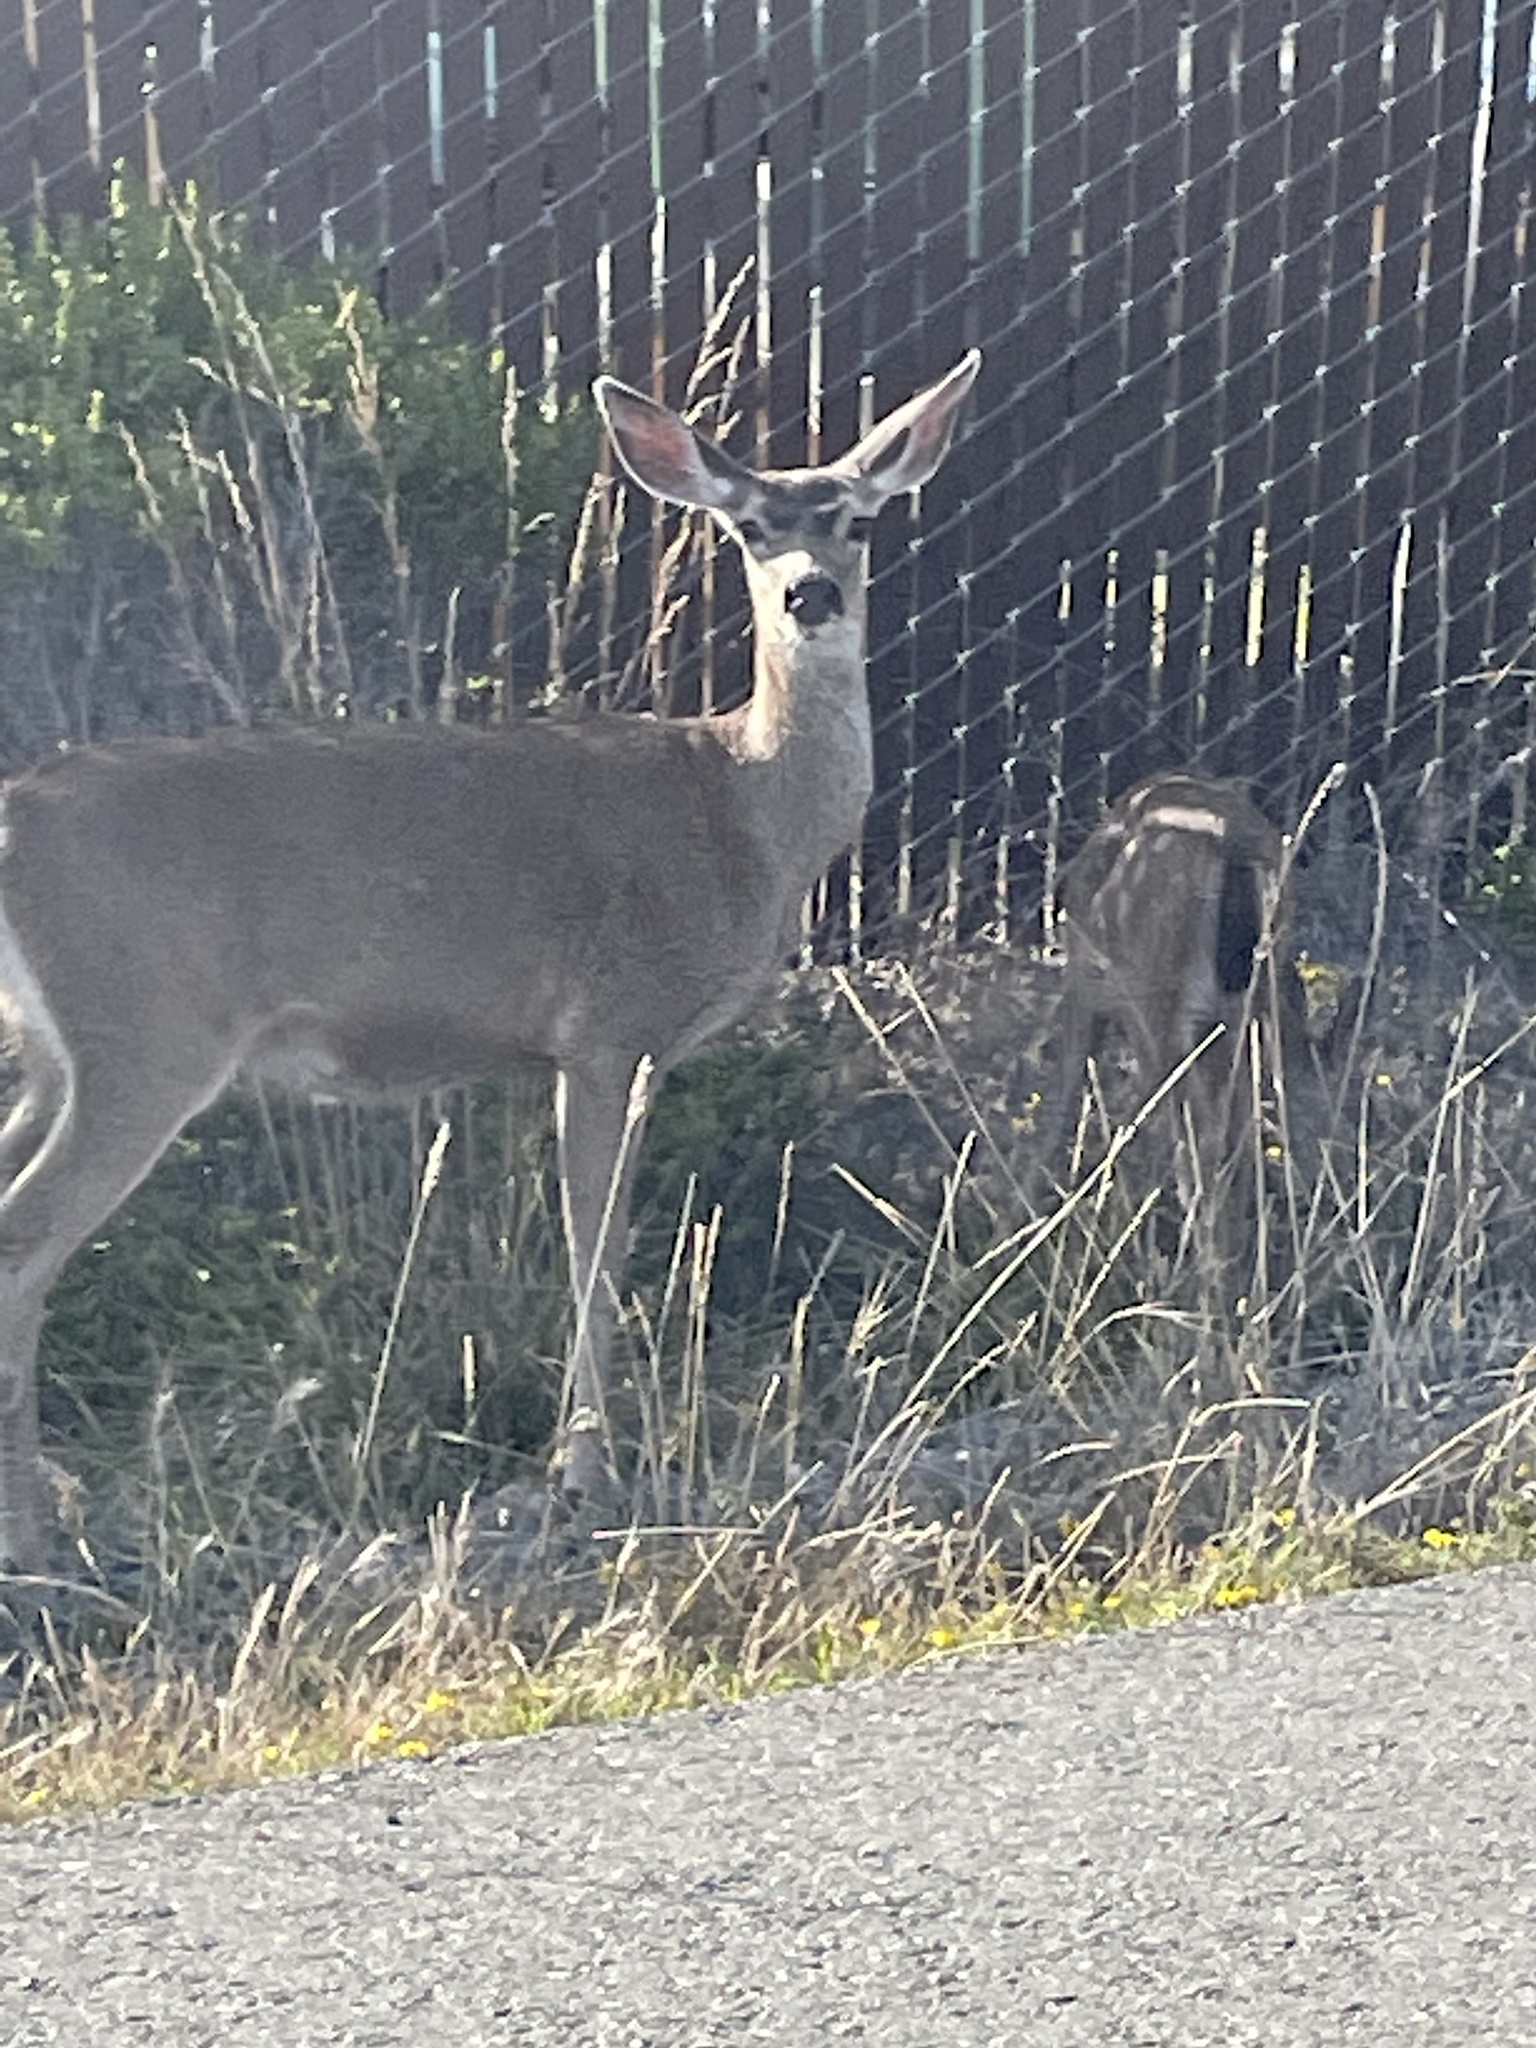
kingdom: Animalia
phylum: Chordata
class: Mammalia
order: Artiodactyla
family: Cervidae
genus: Odocoileus
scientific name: Odocoileus hemionus
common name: Mule deer
